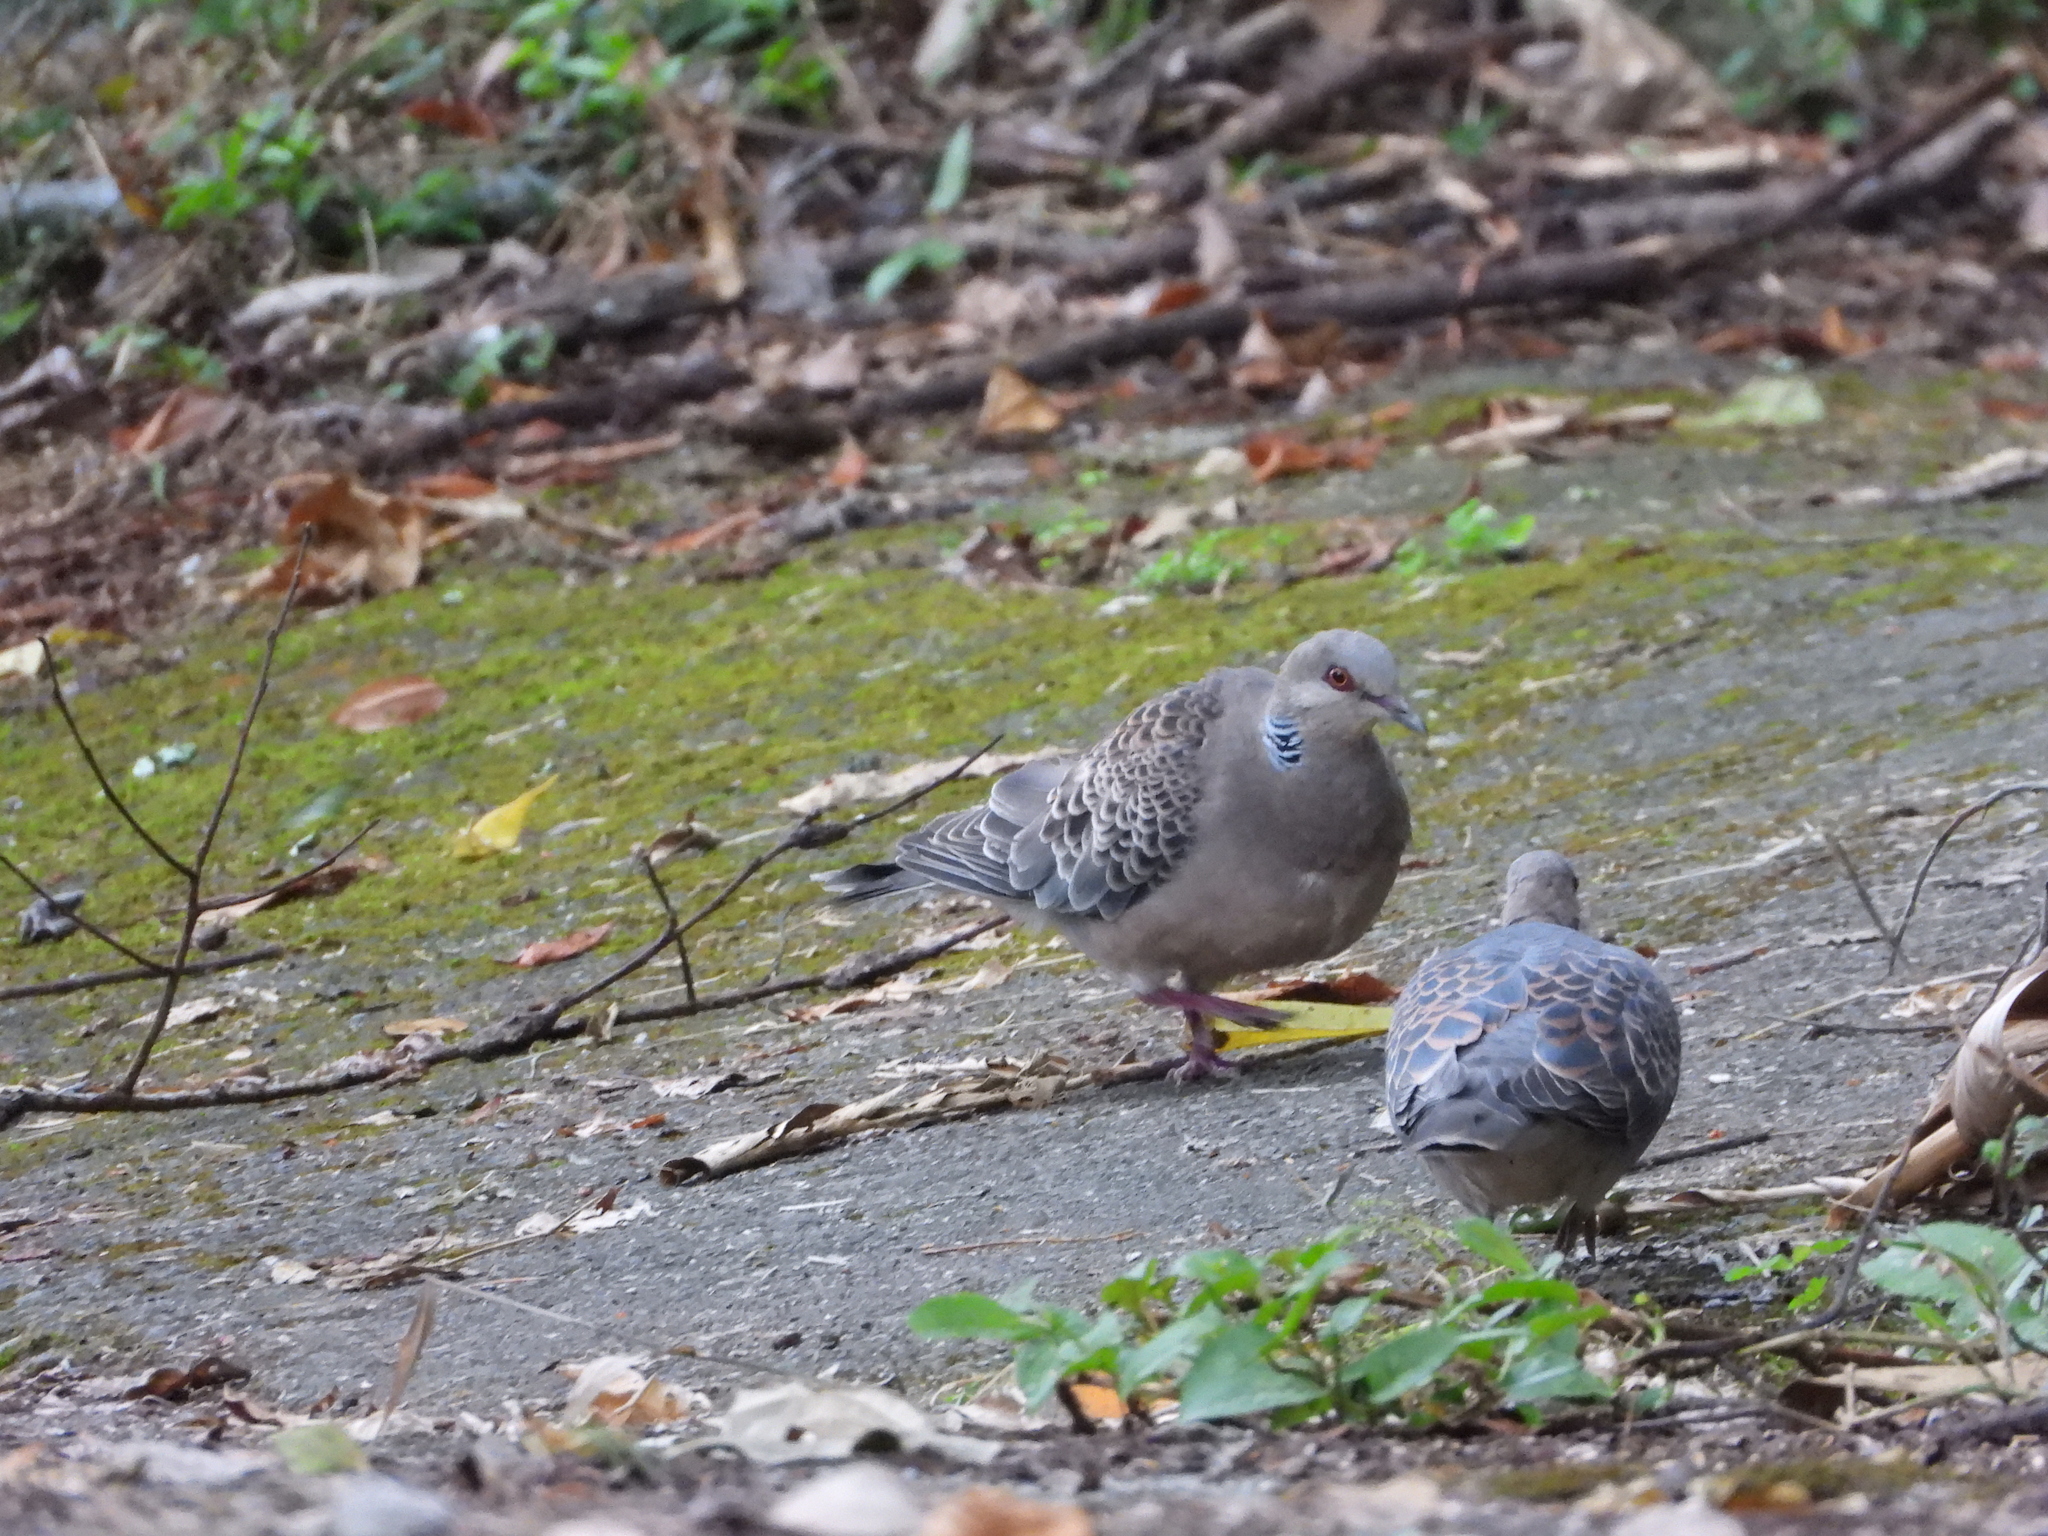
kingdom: Animalia
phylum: Chordata
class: Aves
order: Columbiformes
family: Columbidae
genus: Streptopelia
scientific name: Streptopelia orientalis
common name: Oriental turtle dove
